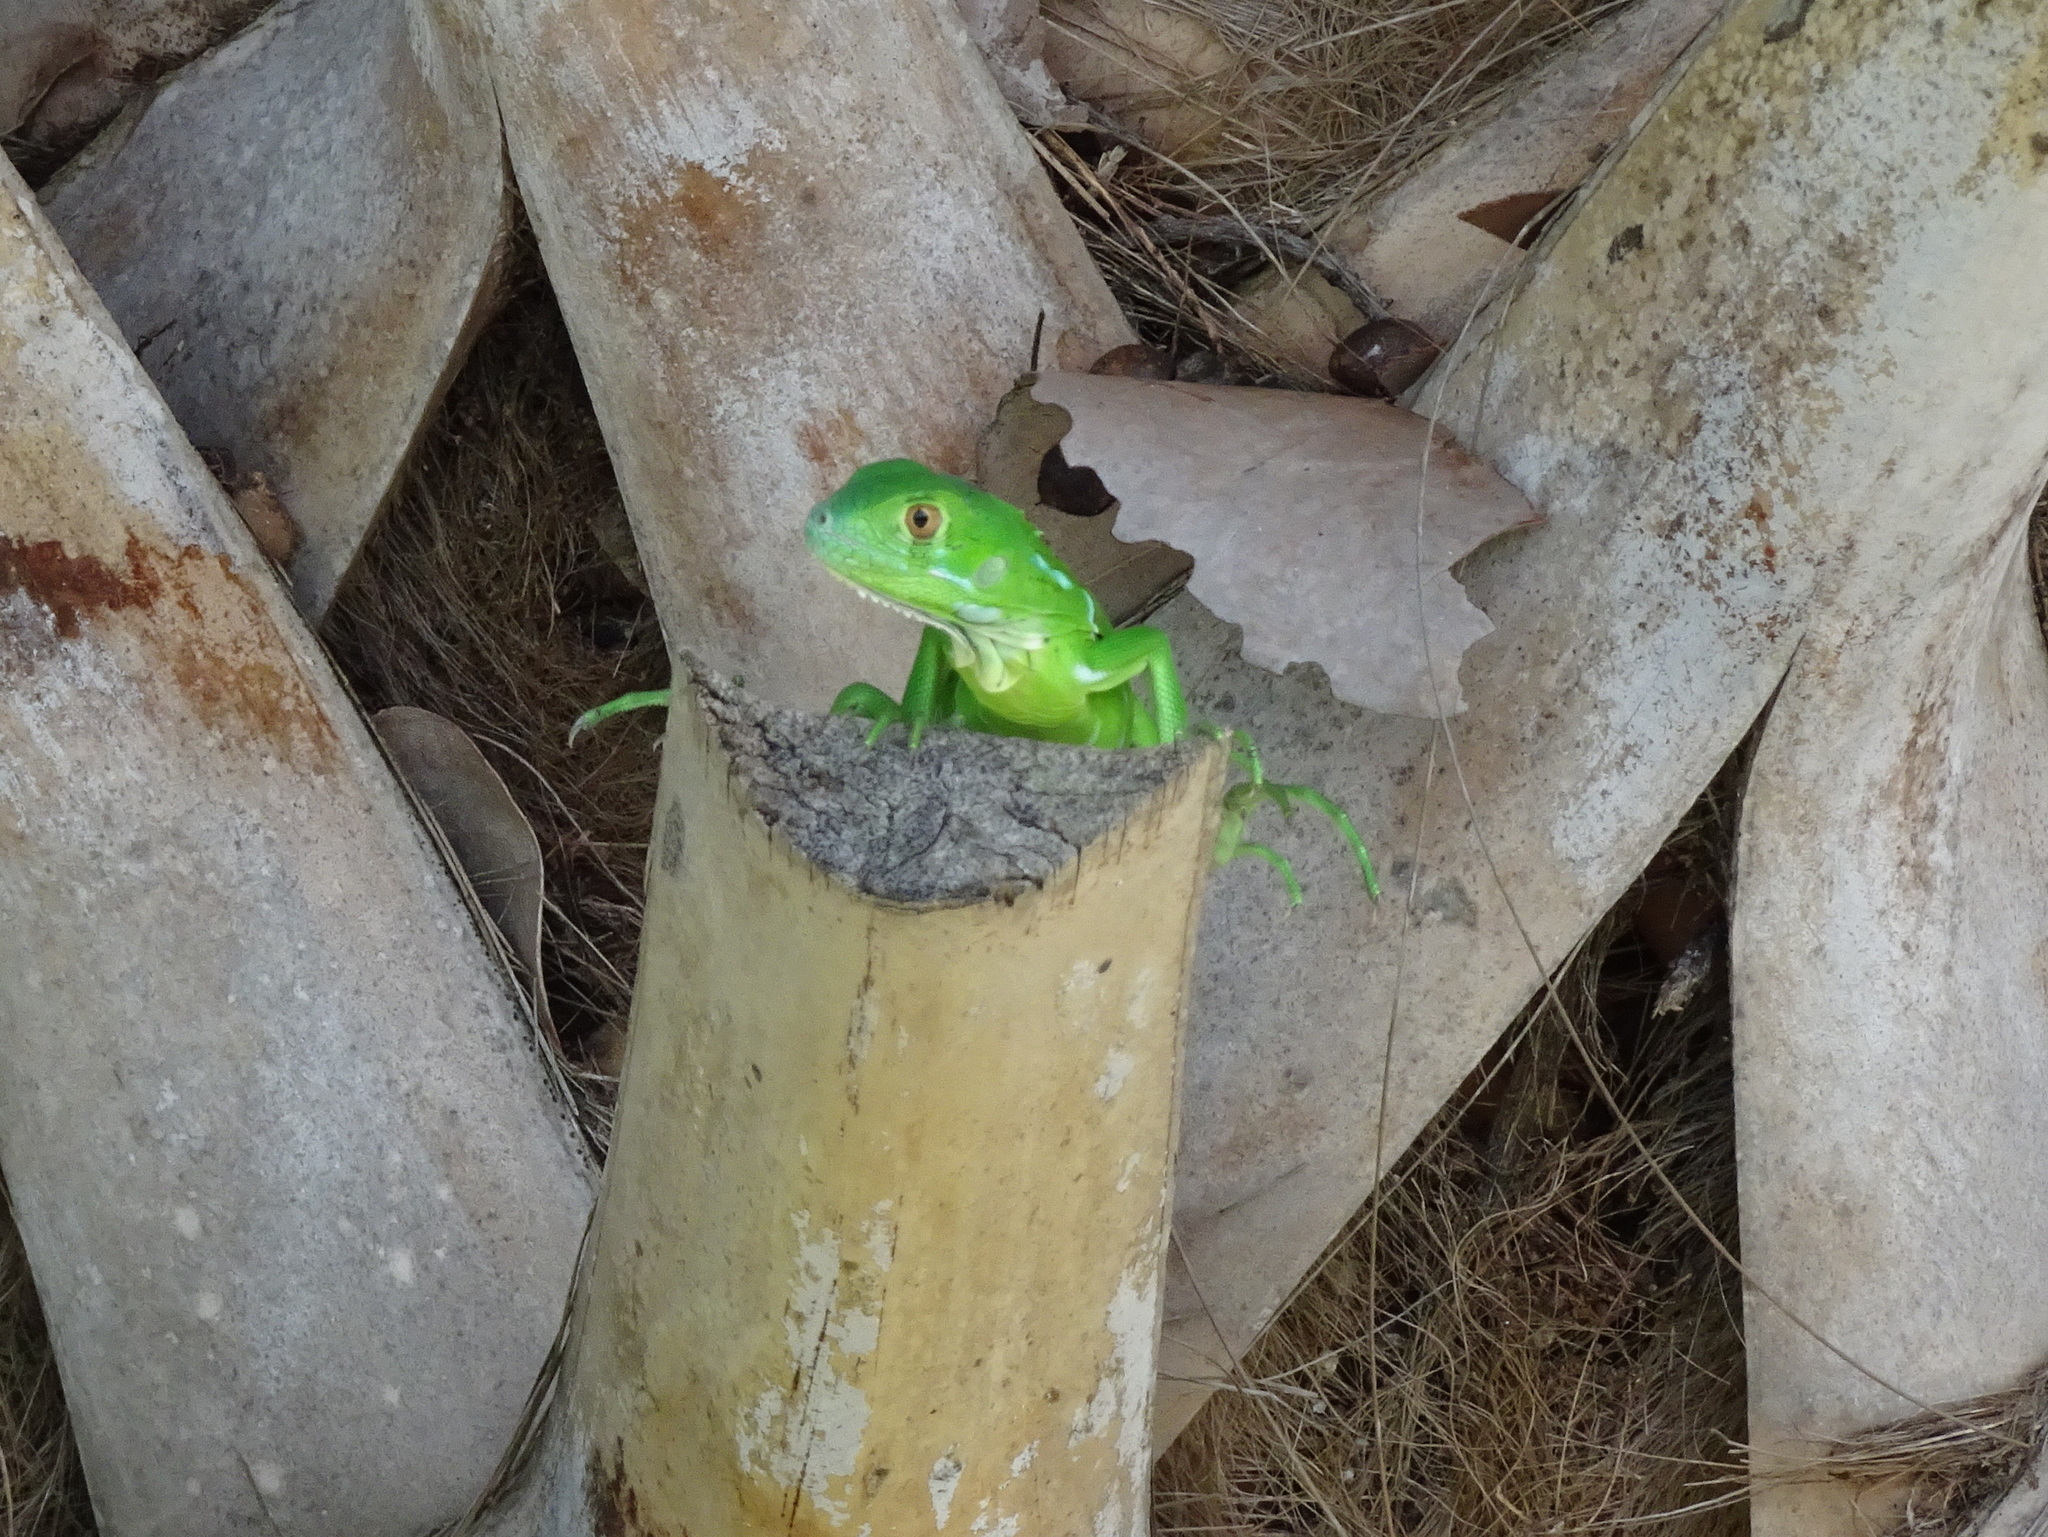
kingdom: Animalia
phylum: Chordata
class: Squamata
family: Iguanidae
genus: Iguana
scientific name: Iguana iguana
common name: Green iguana
